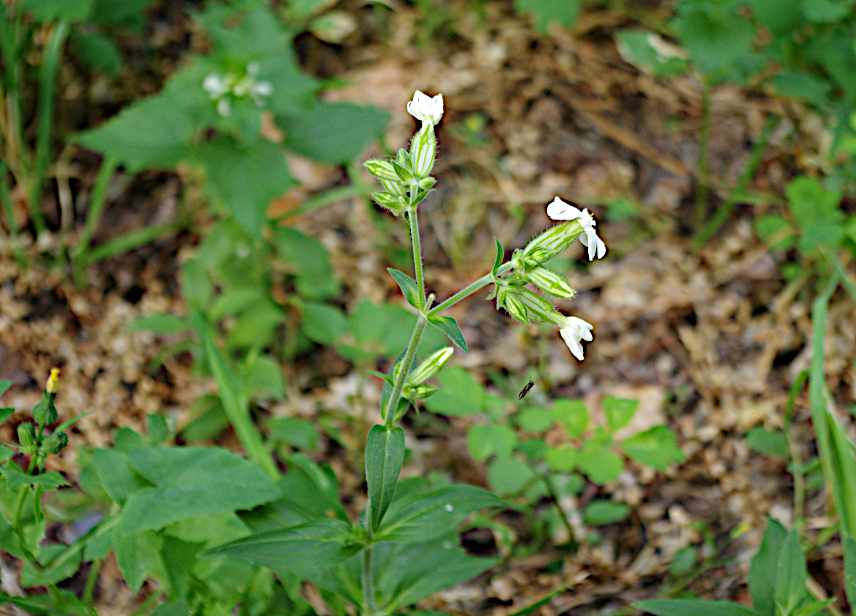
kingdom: Plantae
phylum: Tracheophyta
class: Magnoliopsida
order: Caryophyllales
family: Caryophyllaceae
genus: Silene
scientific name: Silene latifolia
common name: White campion
